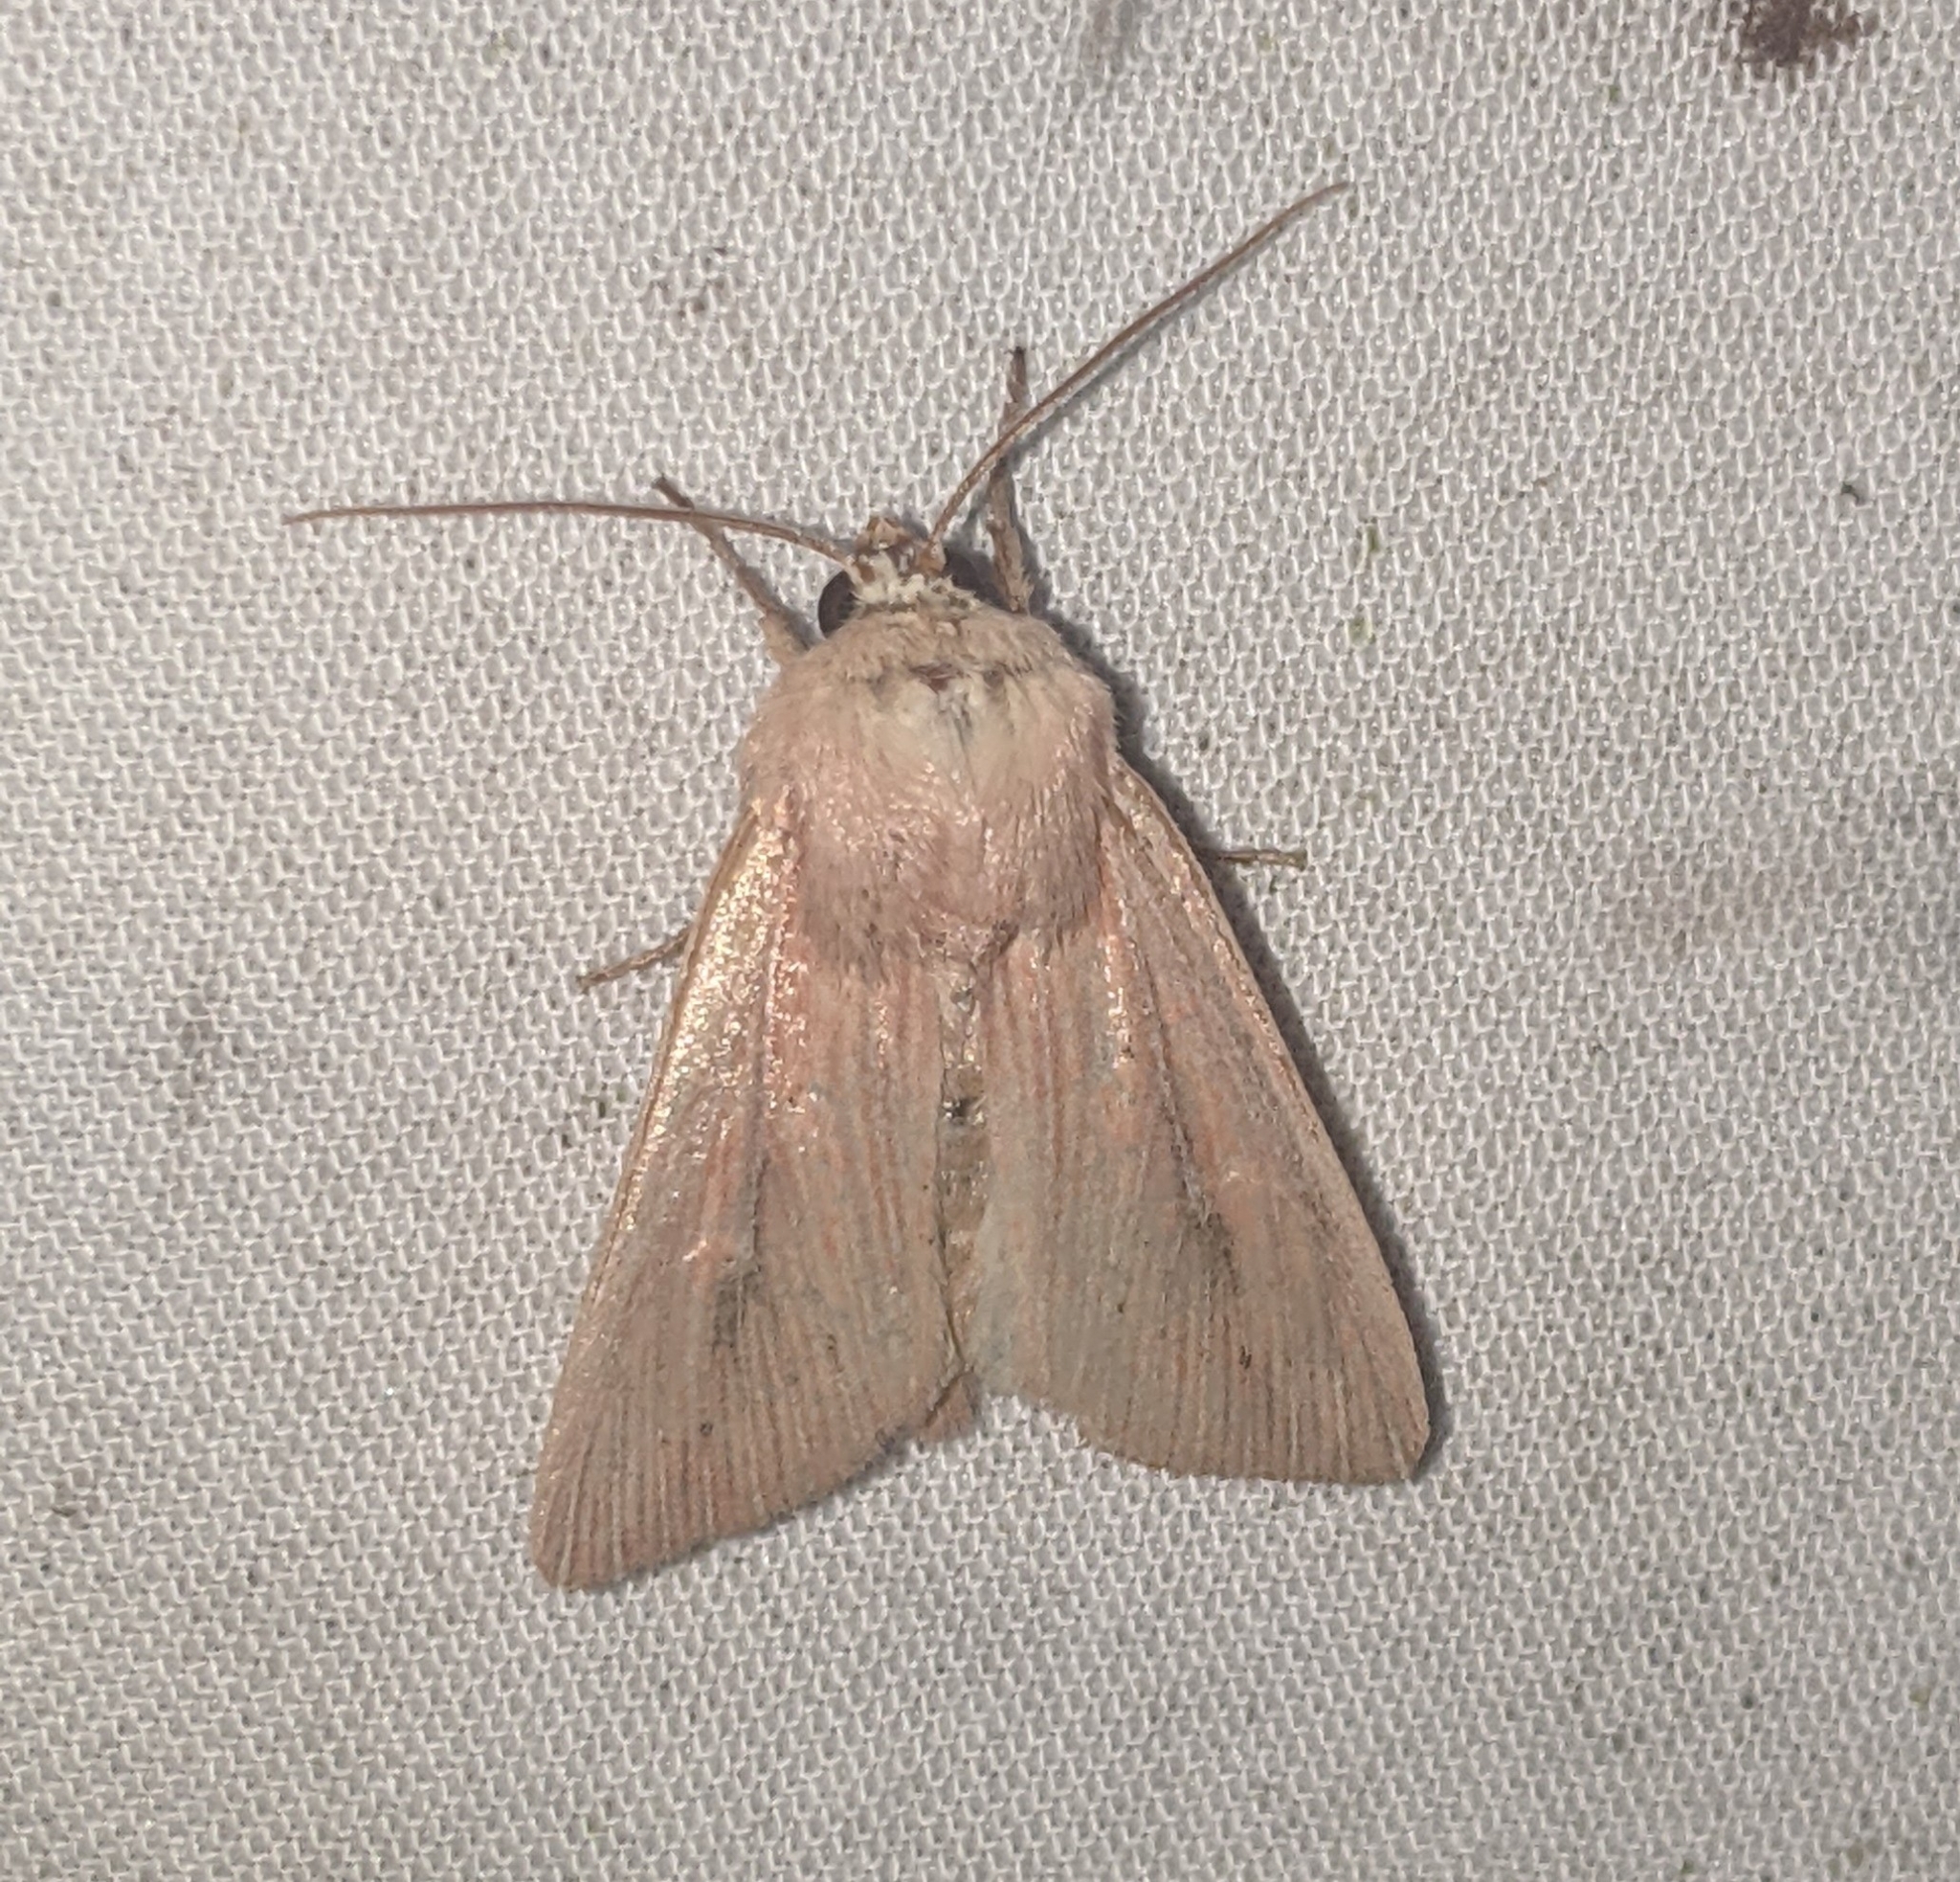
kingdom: Animalia
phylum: Arthropoda
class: Insecta
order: Lepidoptera
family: Noctuidae
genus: Leucania
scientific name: Leucania farcta
